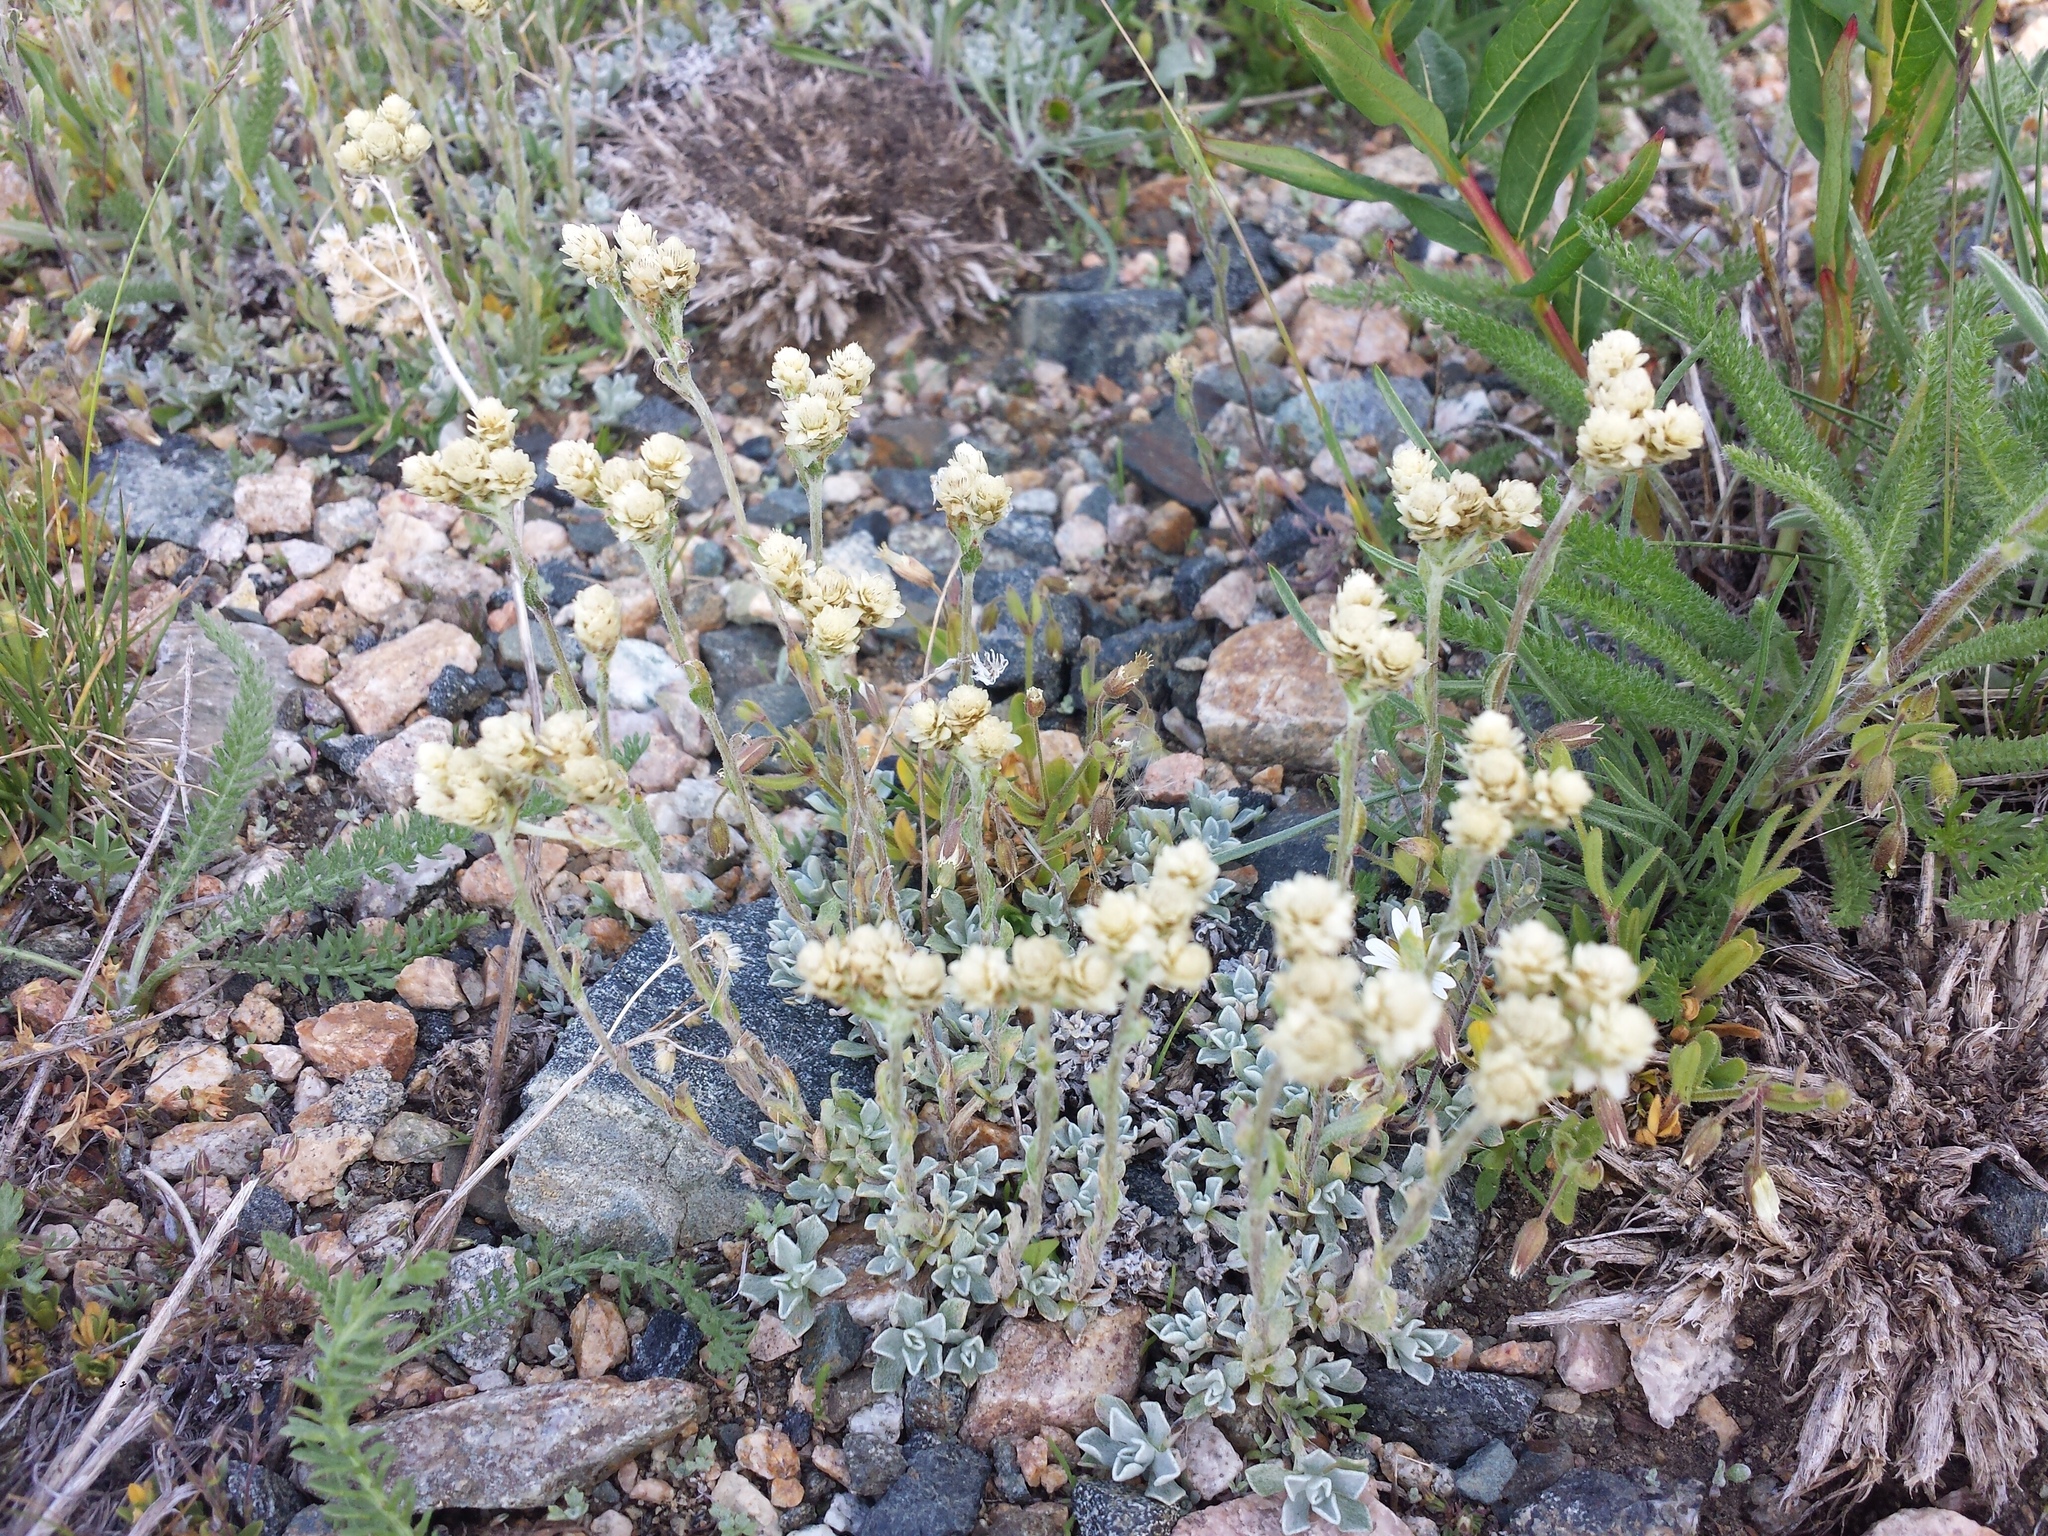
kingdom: Plantae
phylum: Tracheophyta
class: Magnoliopsida
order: Asterales
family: Asteraceae
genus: Antennaria
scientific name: Antennaria umbrinella
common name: Brown pussytoes
